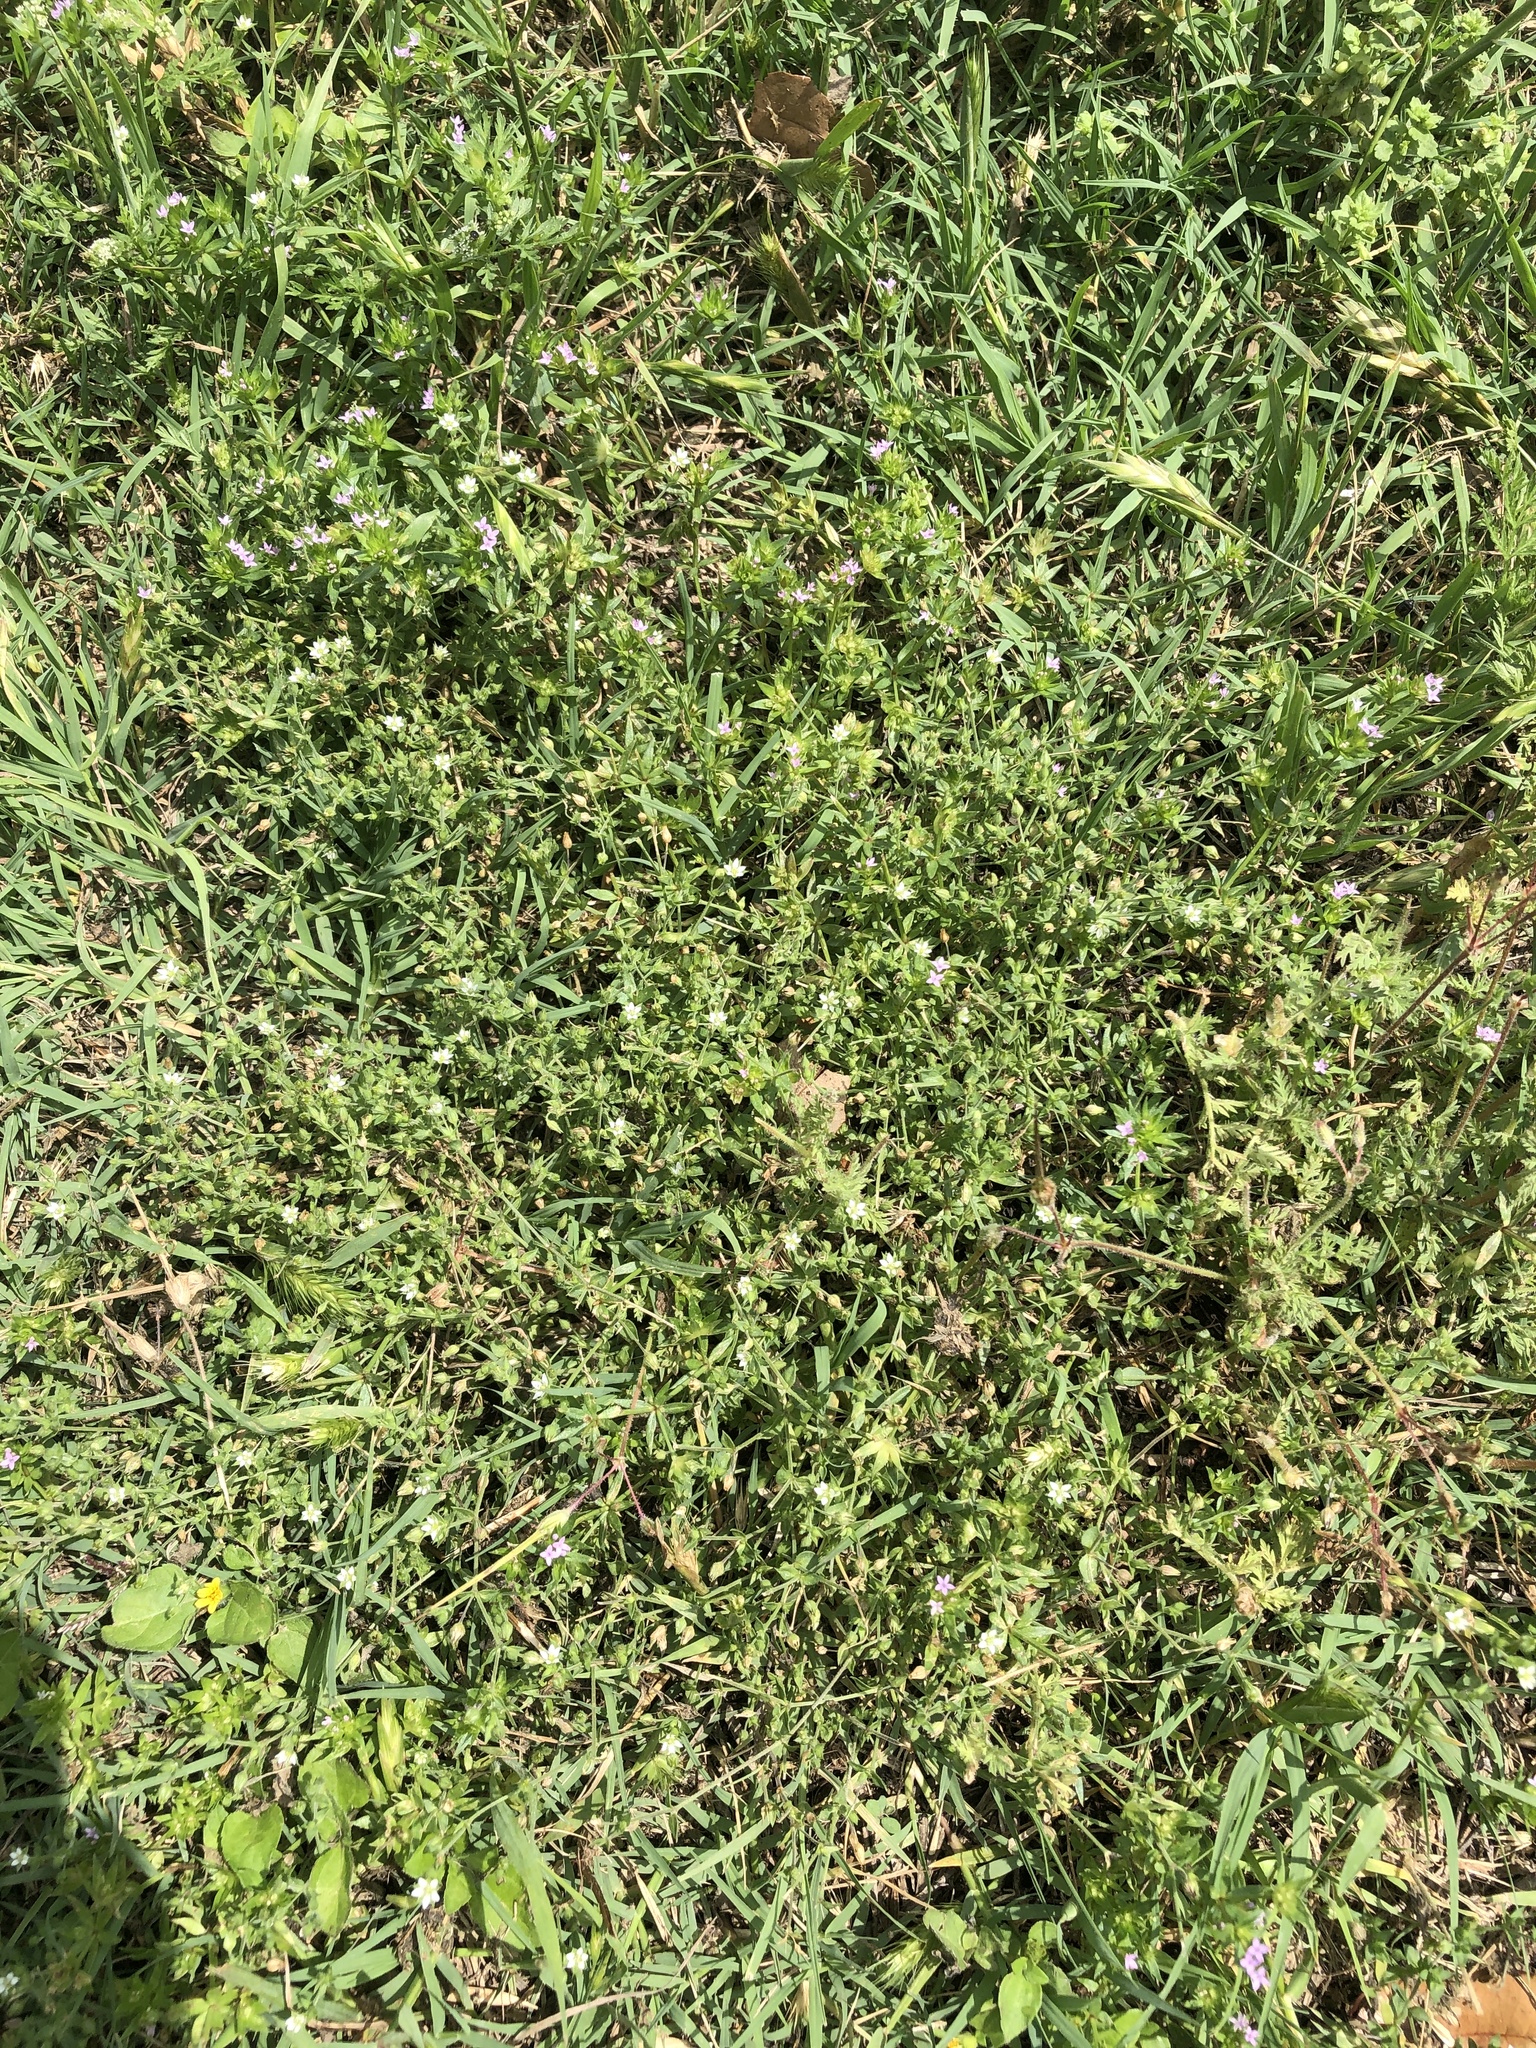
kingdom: Plantae
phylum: Tracheophyta
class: Magnoliopsida
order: Caryophyllales
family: Caryophyllaceae
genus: Arenaria
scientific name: Arenaria serpyllifolia
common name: Thyme-leaved sandwort
